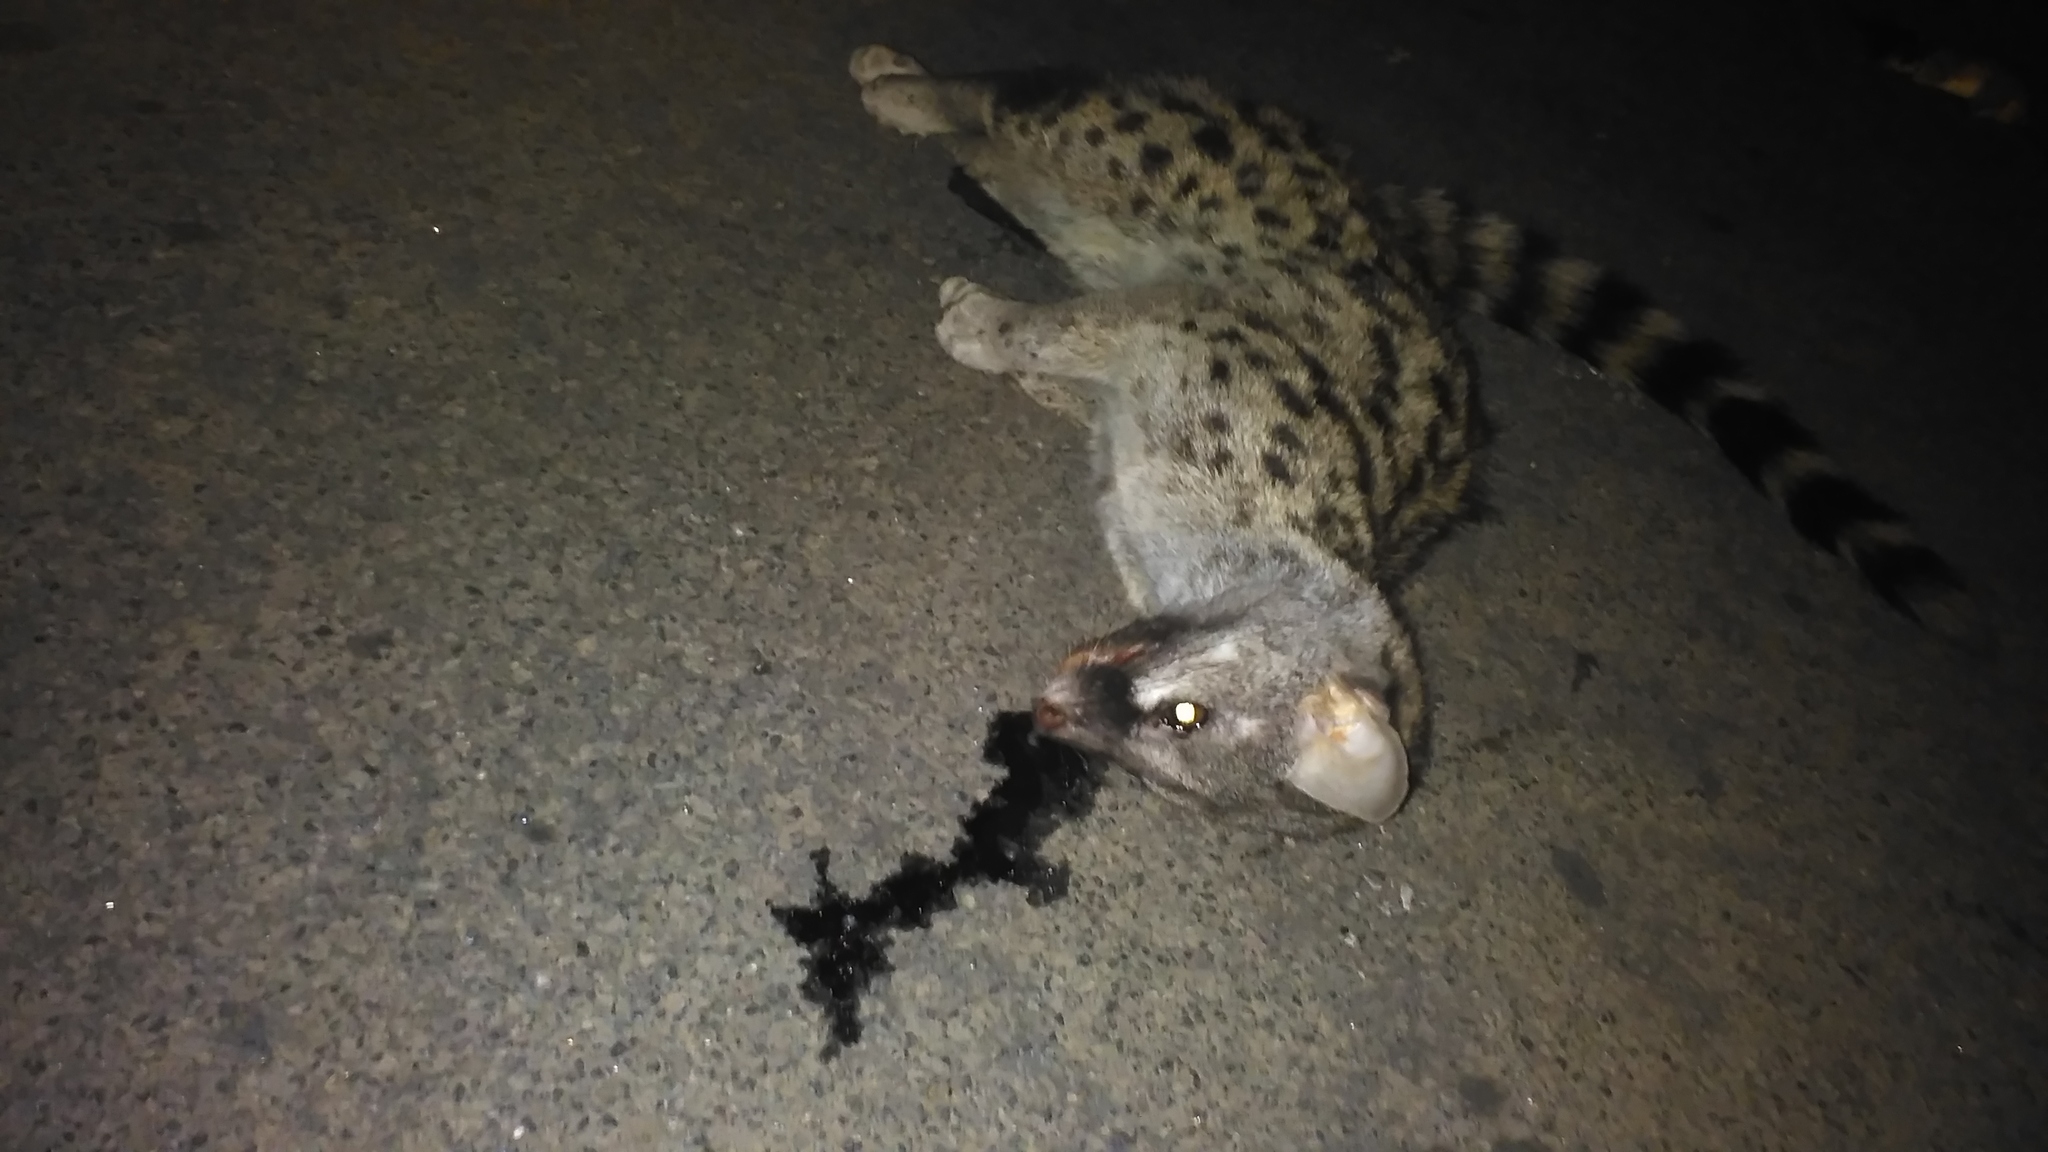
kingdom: Animalia
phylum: Chordata
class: Mammalia
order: Carnivora
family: Viverridae
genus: Genetta
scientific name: Genetta genetta
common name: Common genet
